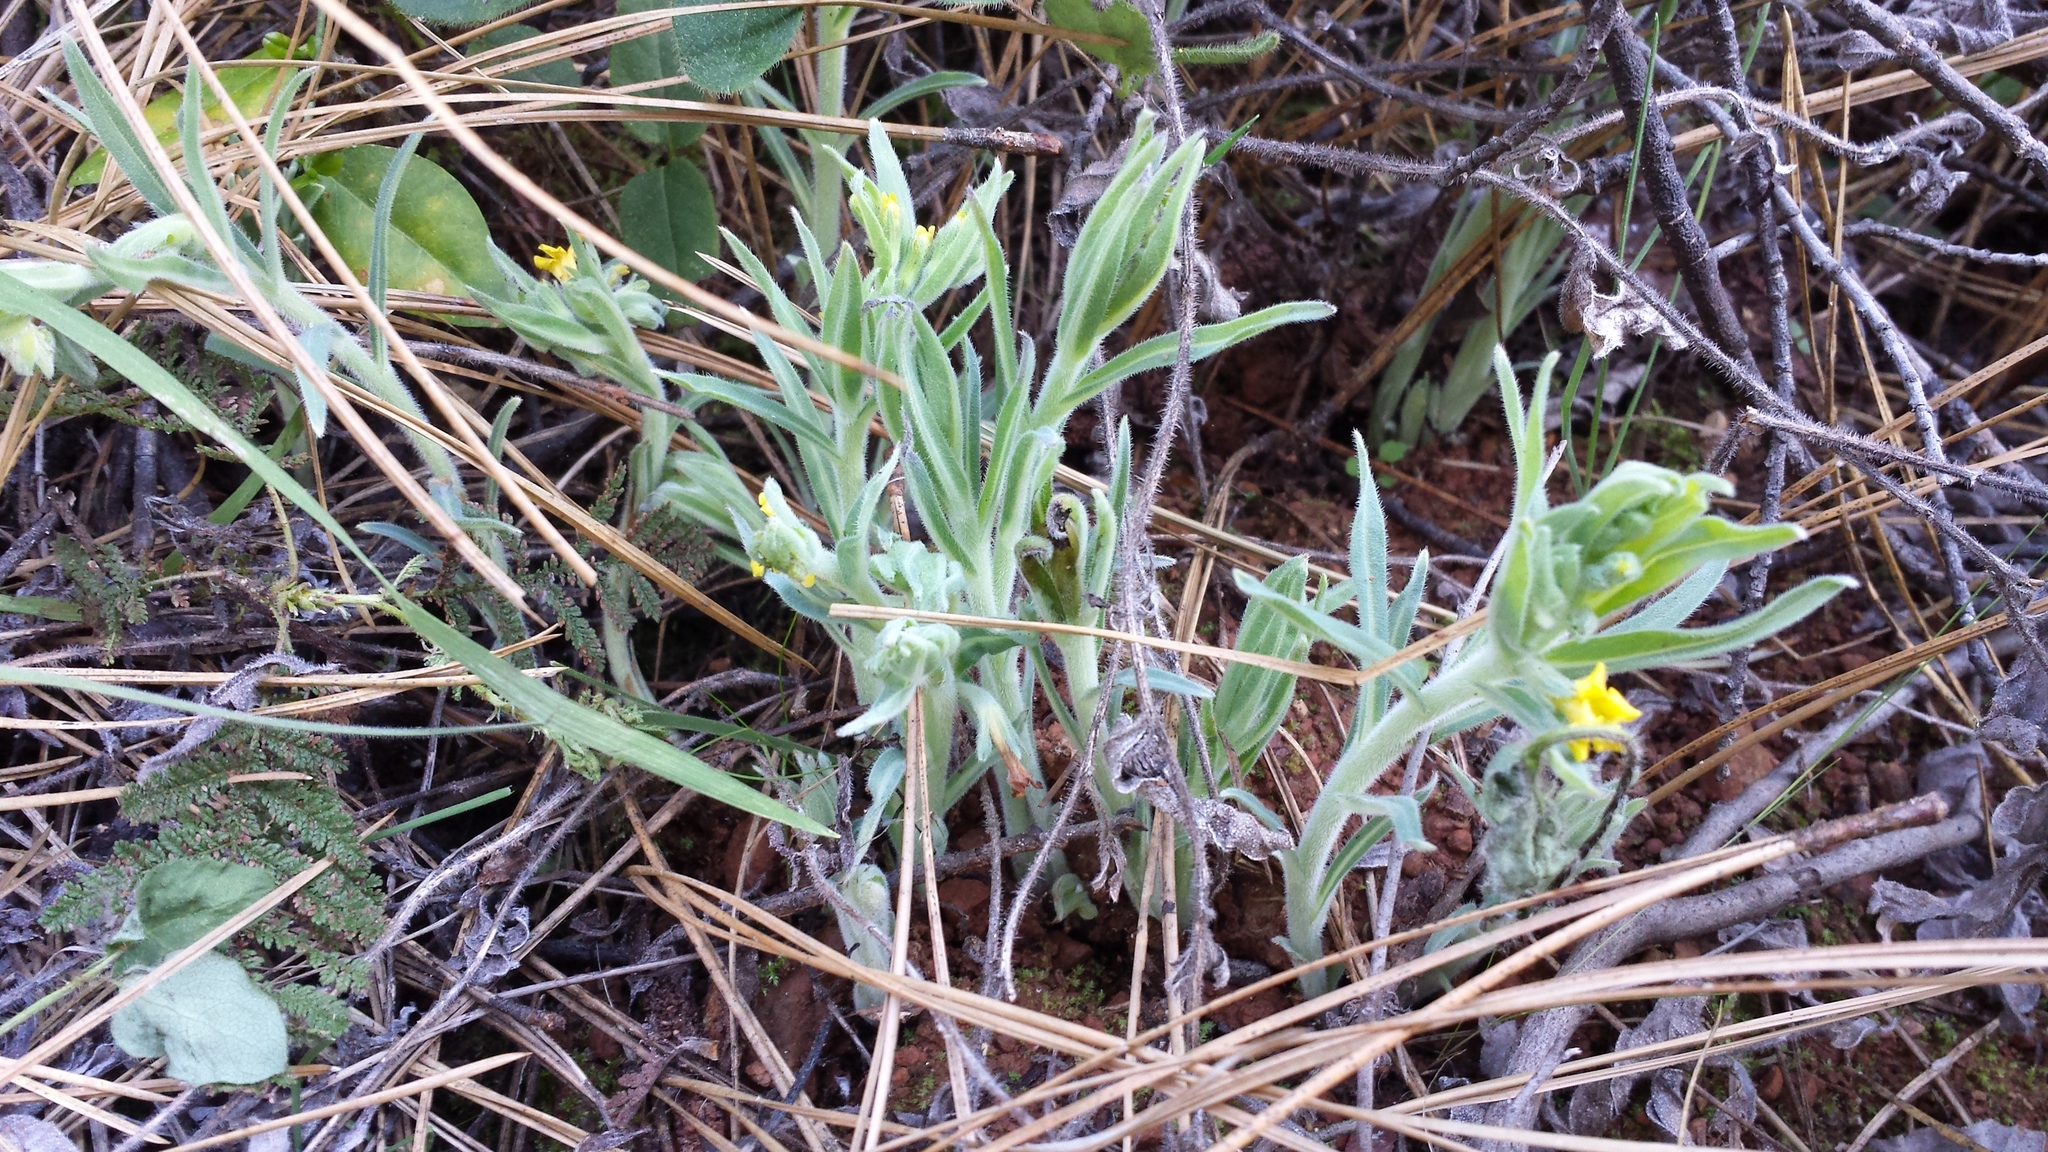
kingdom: Plantae
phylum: Tracheophyta
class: Magnoliopsida
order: Boraginales
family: Boraginaceae
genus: Lithospermum
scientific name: Lithospermum californicum
